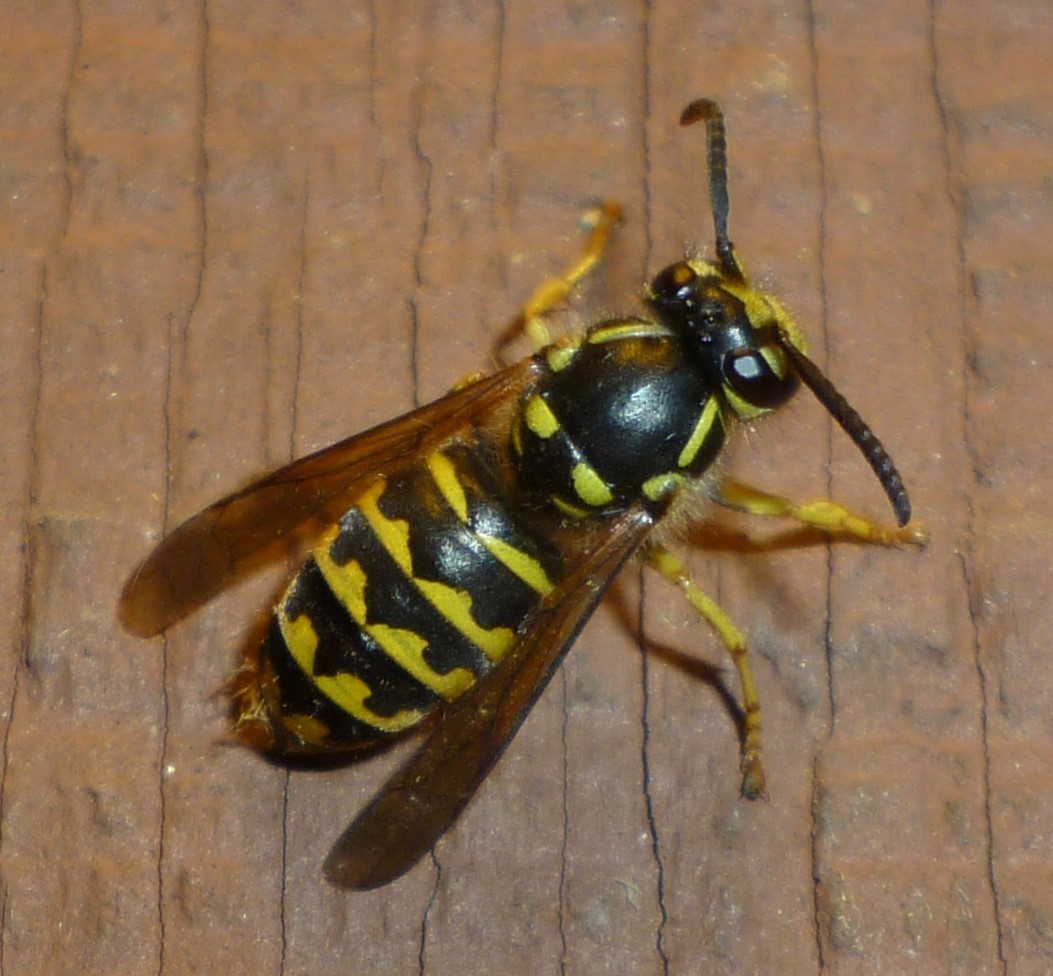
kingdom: Animalia
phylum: Arthropoda
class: Insecta
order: Hymenoptera
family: Vespidae
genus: Dolichovespula
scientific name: Dolichovespula arenaria
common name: Aerial yellowjacket
